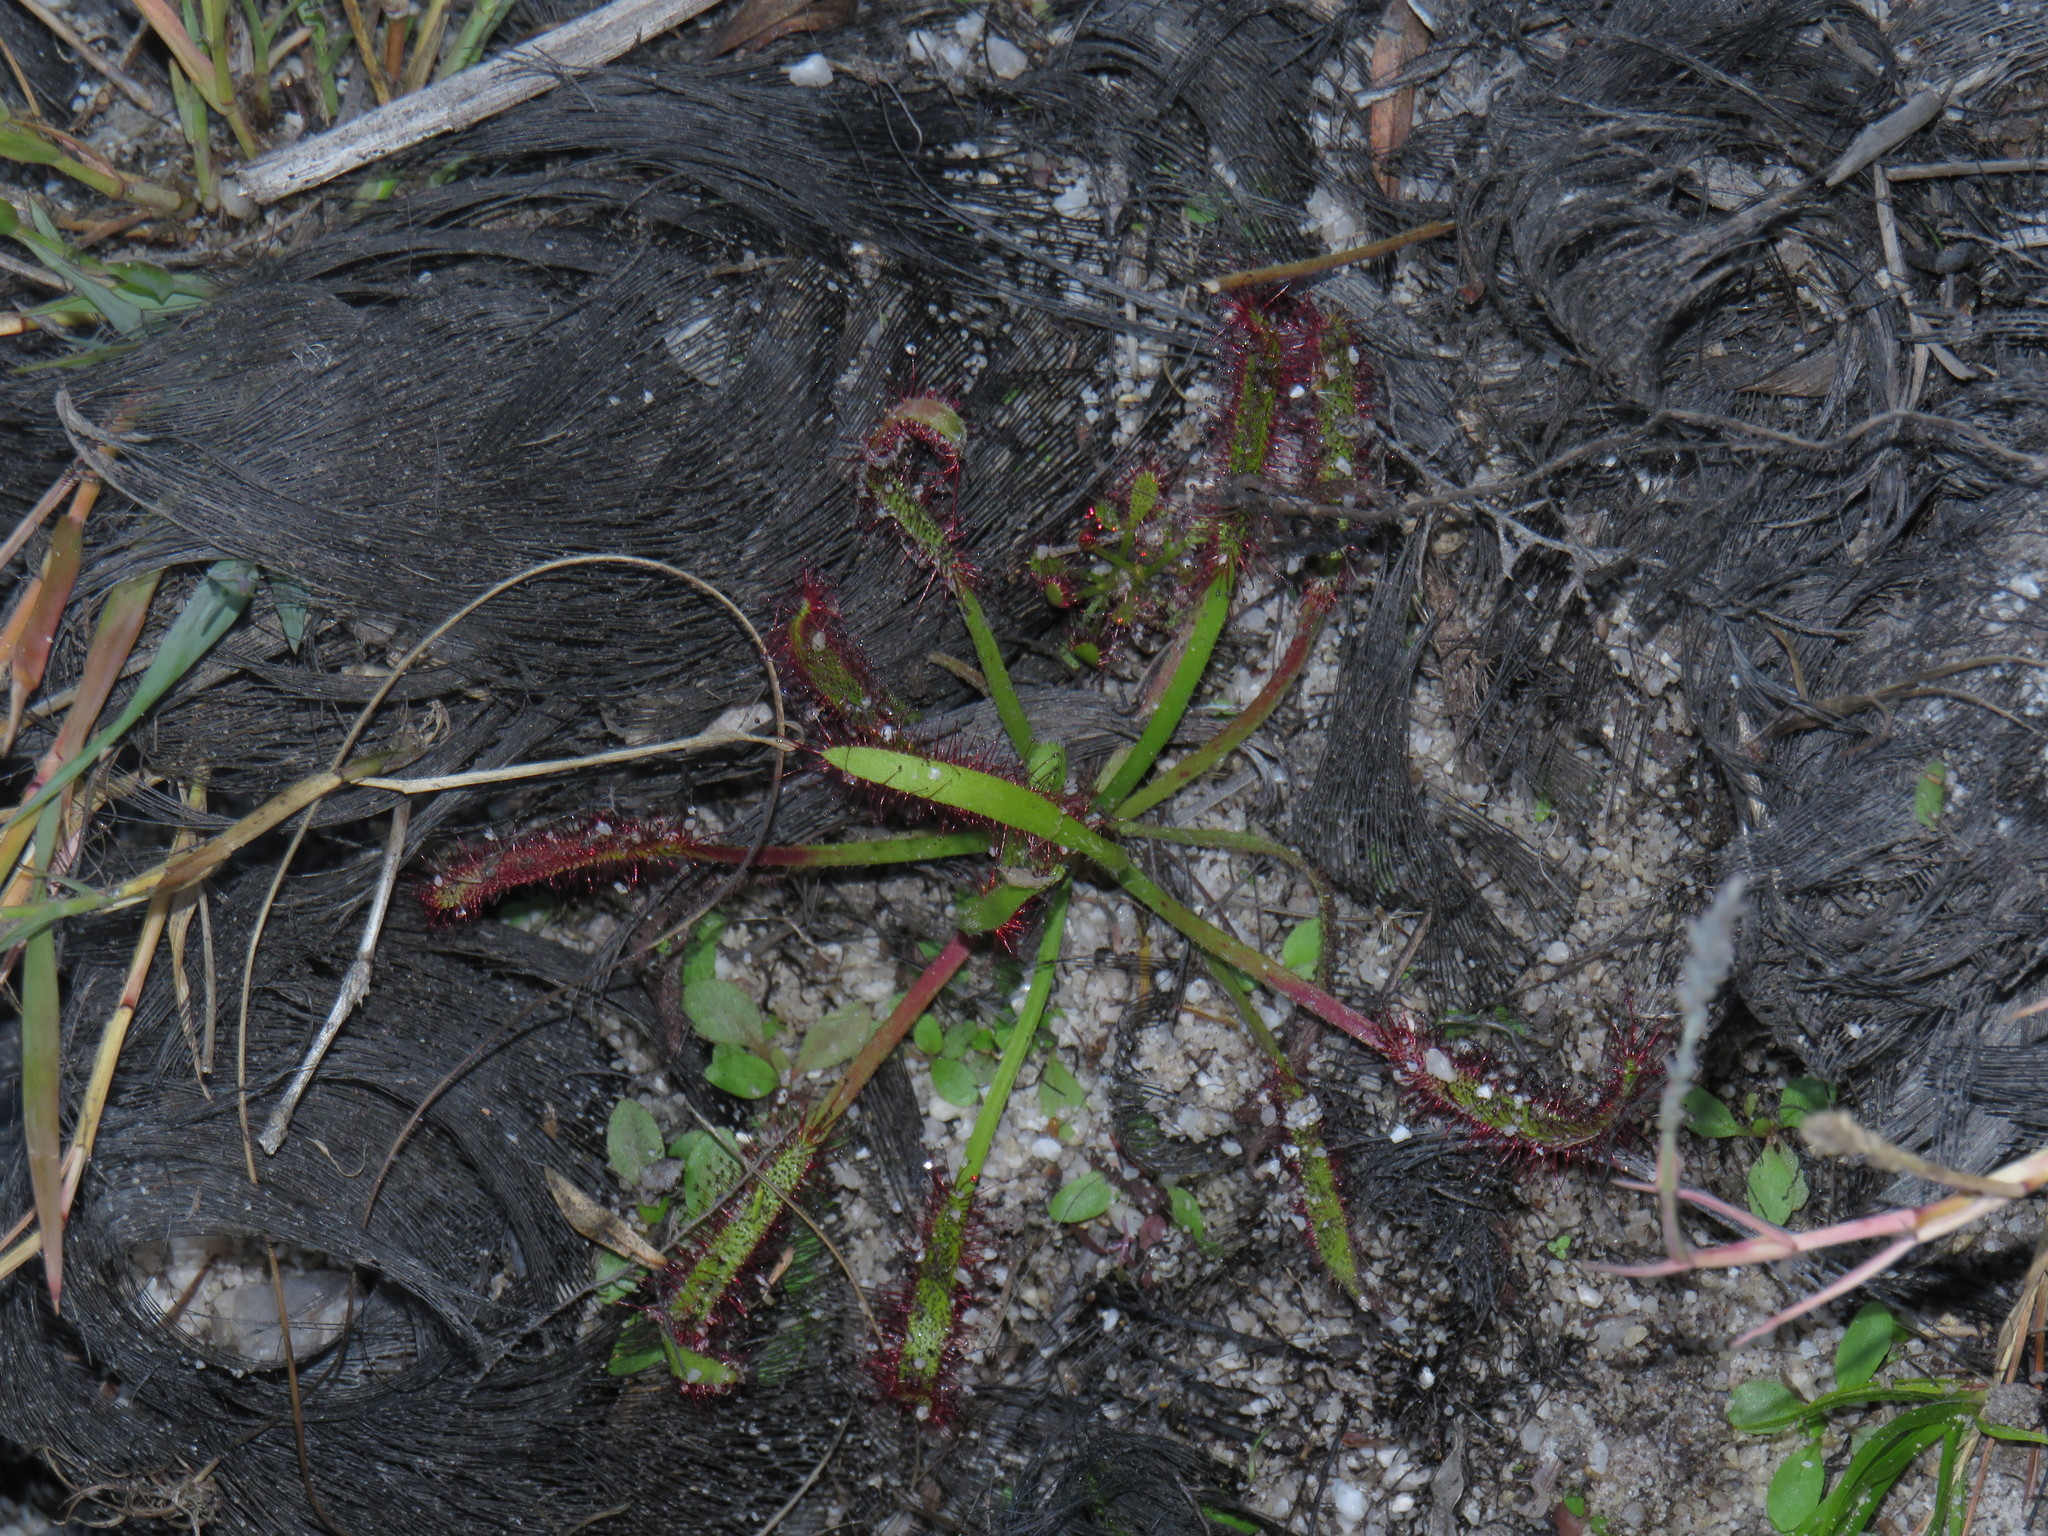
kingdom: Plantae
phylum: Tracheophyta
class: Magnoliopsida
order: Caryophyllales
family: Droseraceae
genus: Drosera
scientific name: Drosera capensis
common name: Cape sundew
